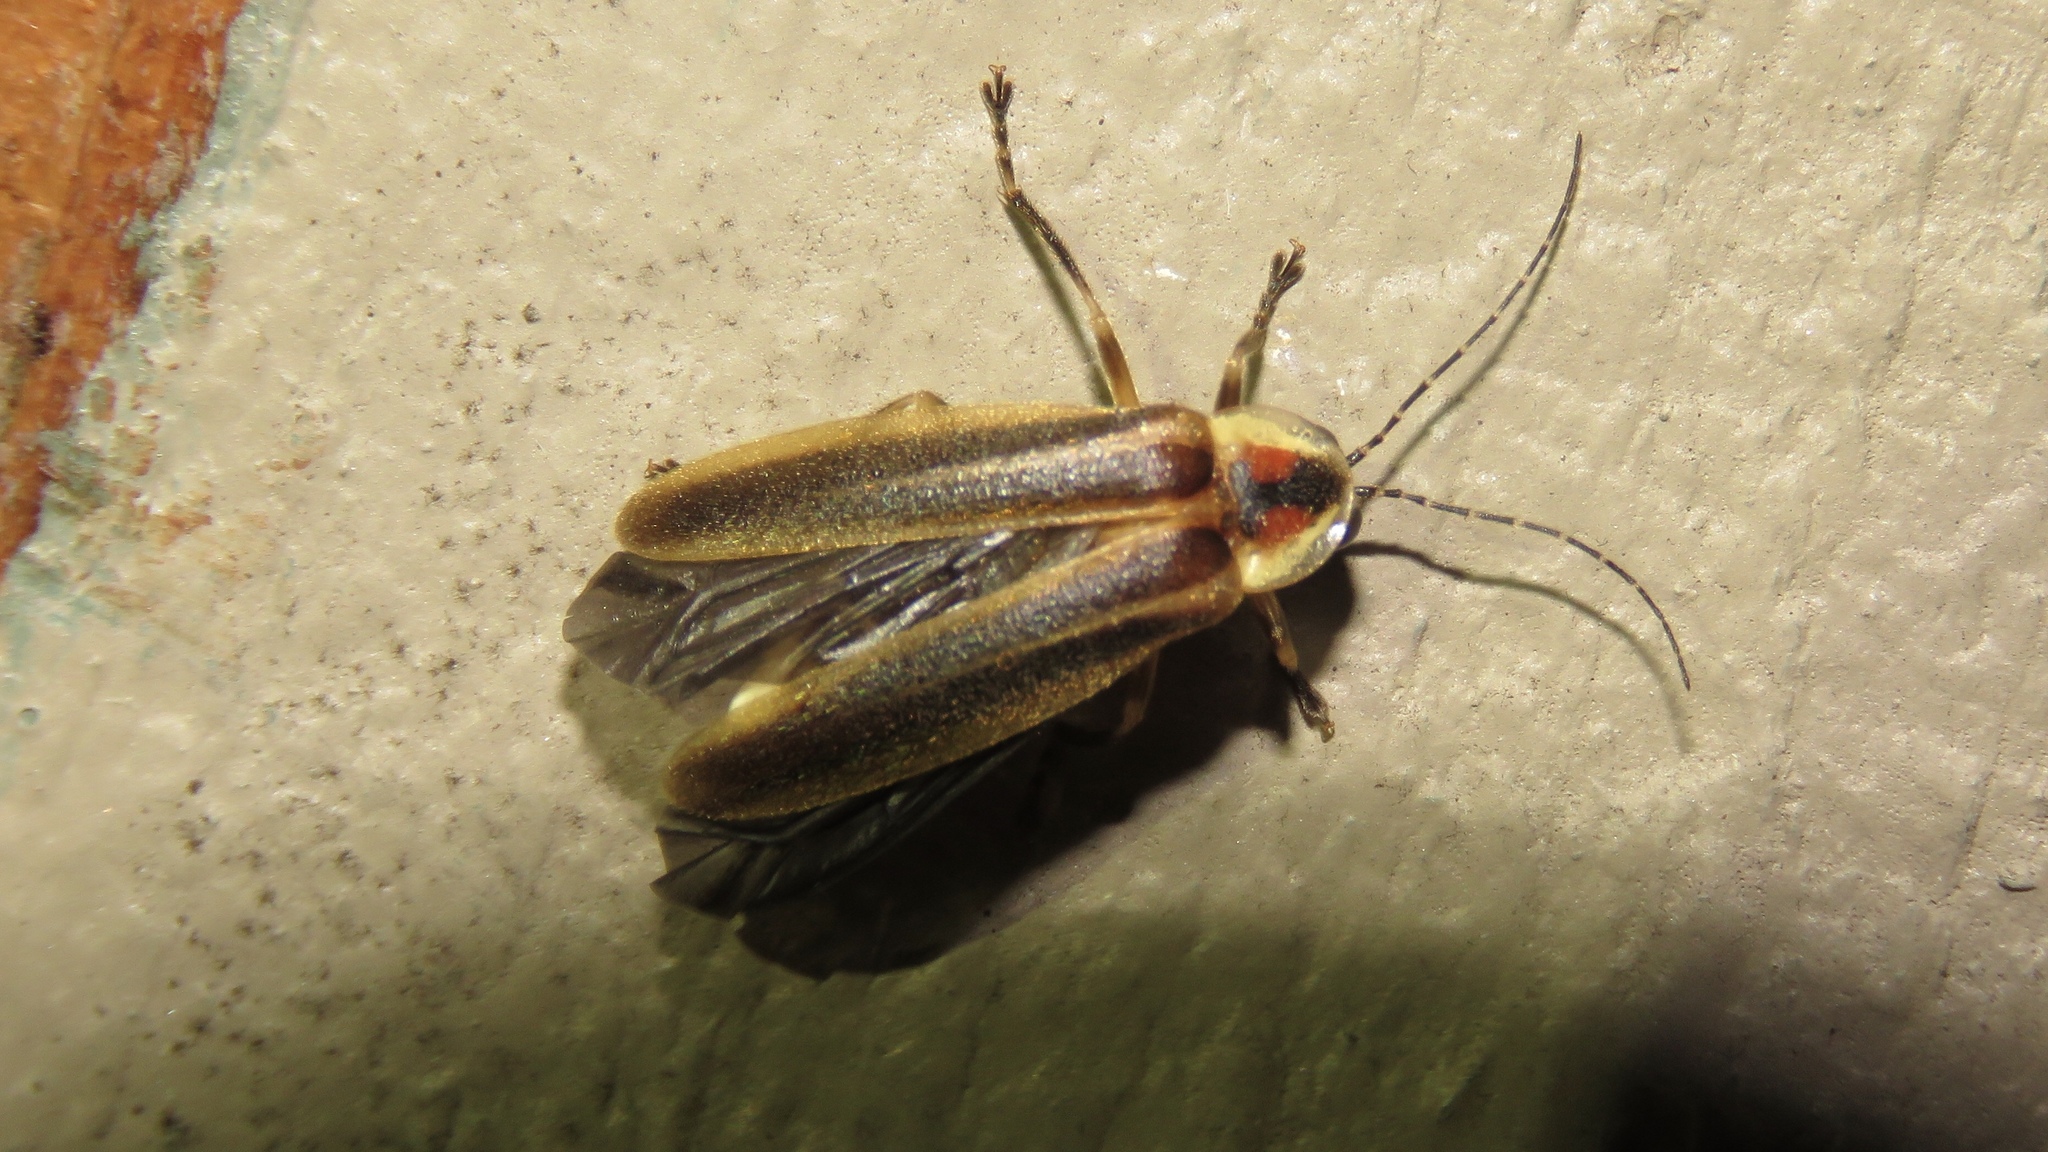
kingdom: Animalia
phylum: Arthropoda
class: Insecta
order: Coleoptera
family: Lampyridae
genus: Photuris
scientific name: Photuris
